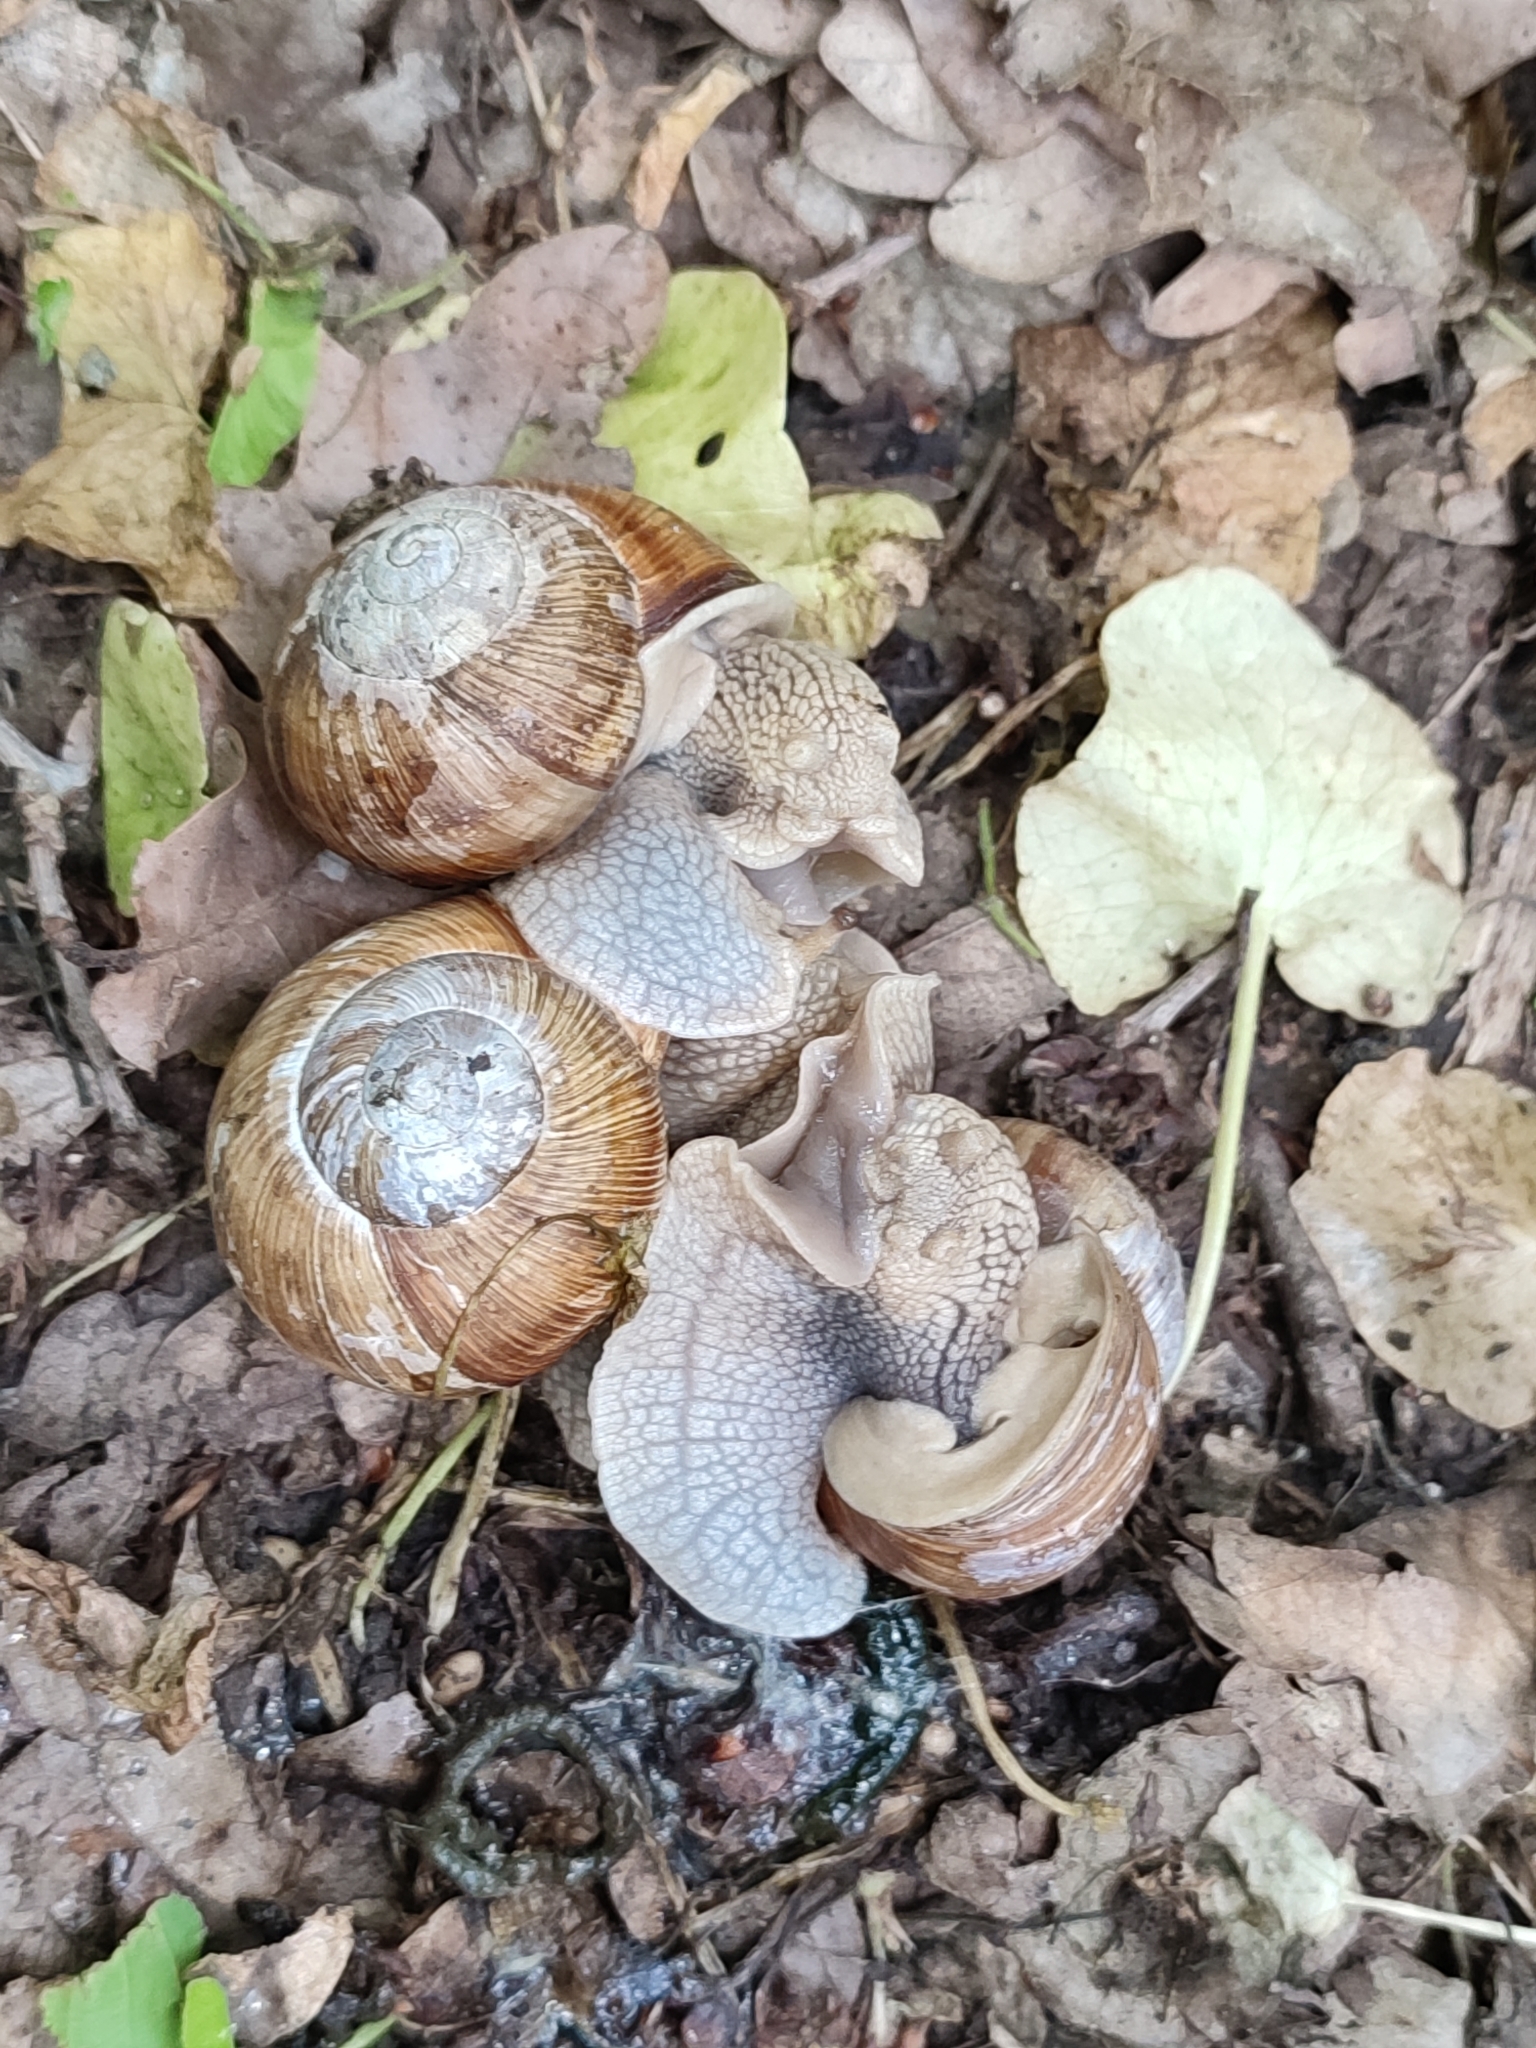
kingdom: Animalia
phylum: Mollusca
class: Gastropoda
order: Stylommatophora
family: Helicidae
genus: Helix
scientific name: Helix pomatia
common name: Roman snail
